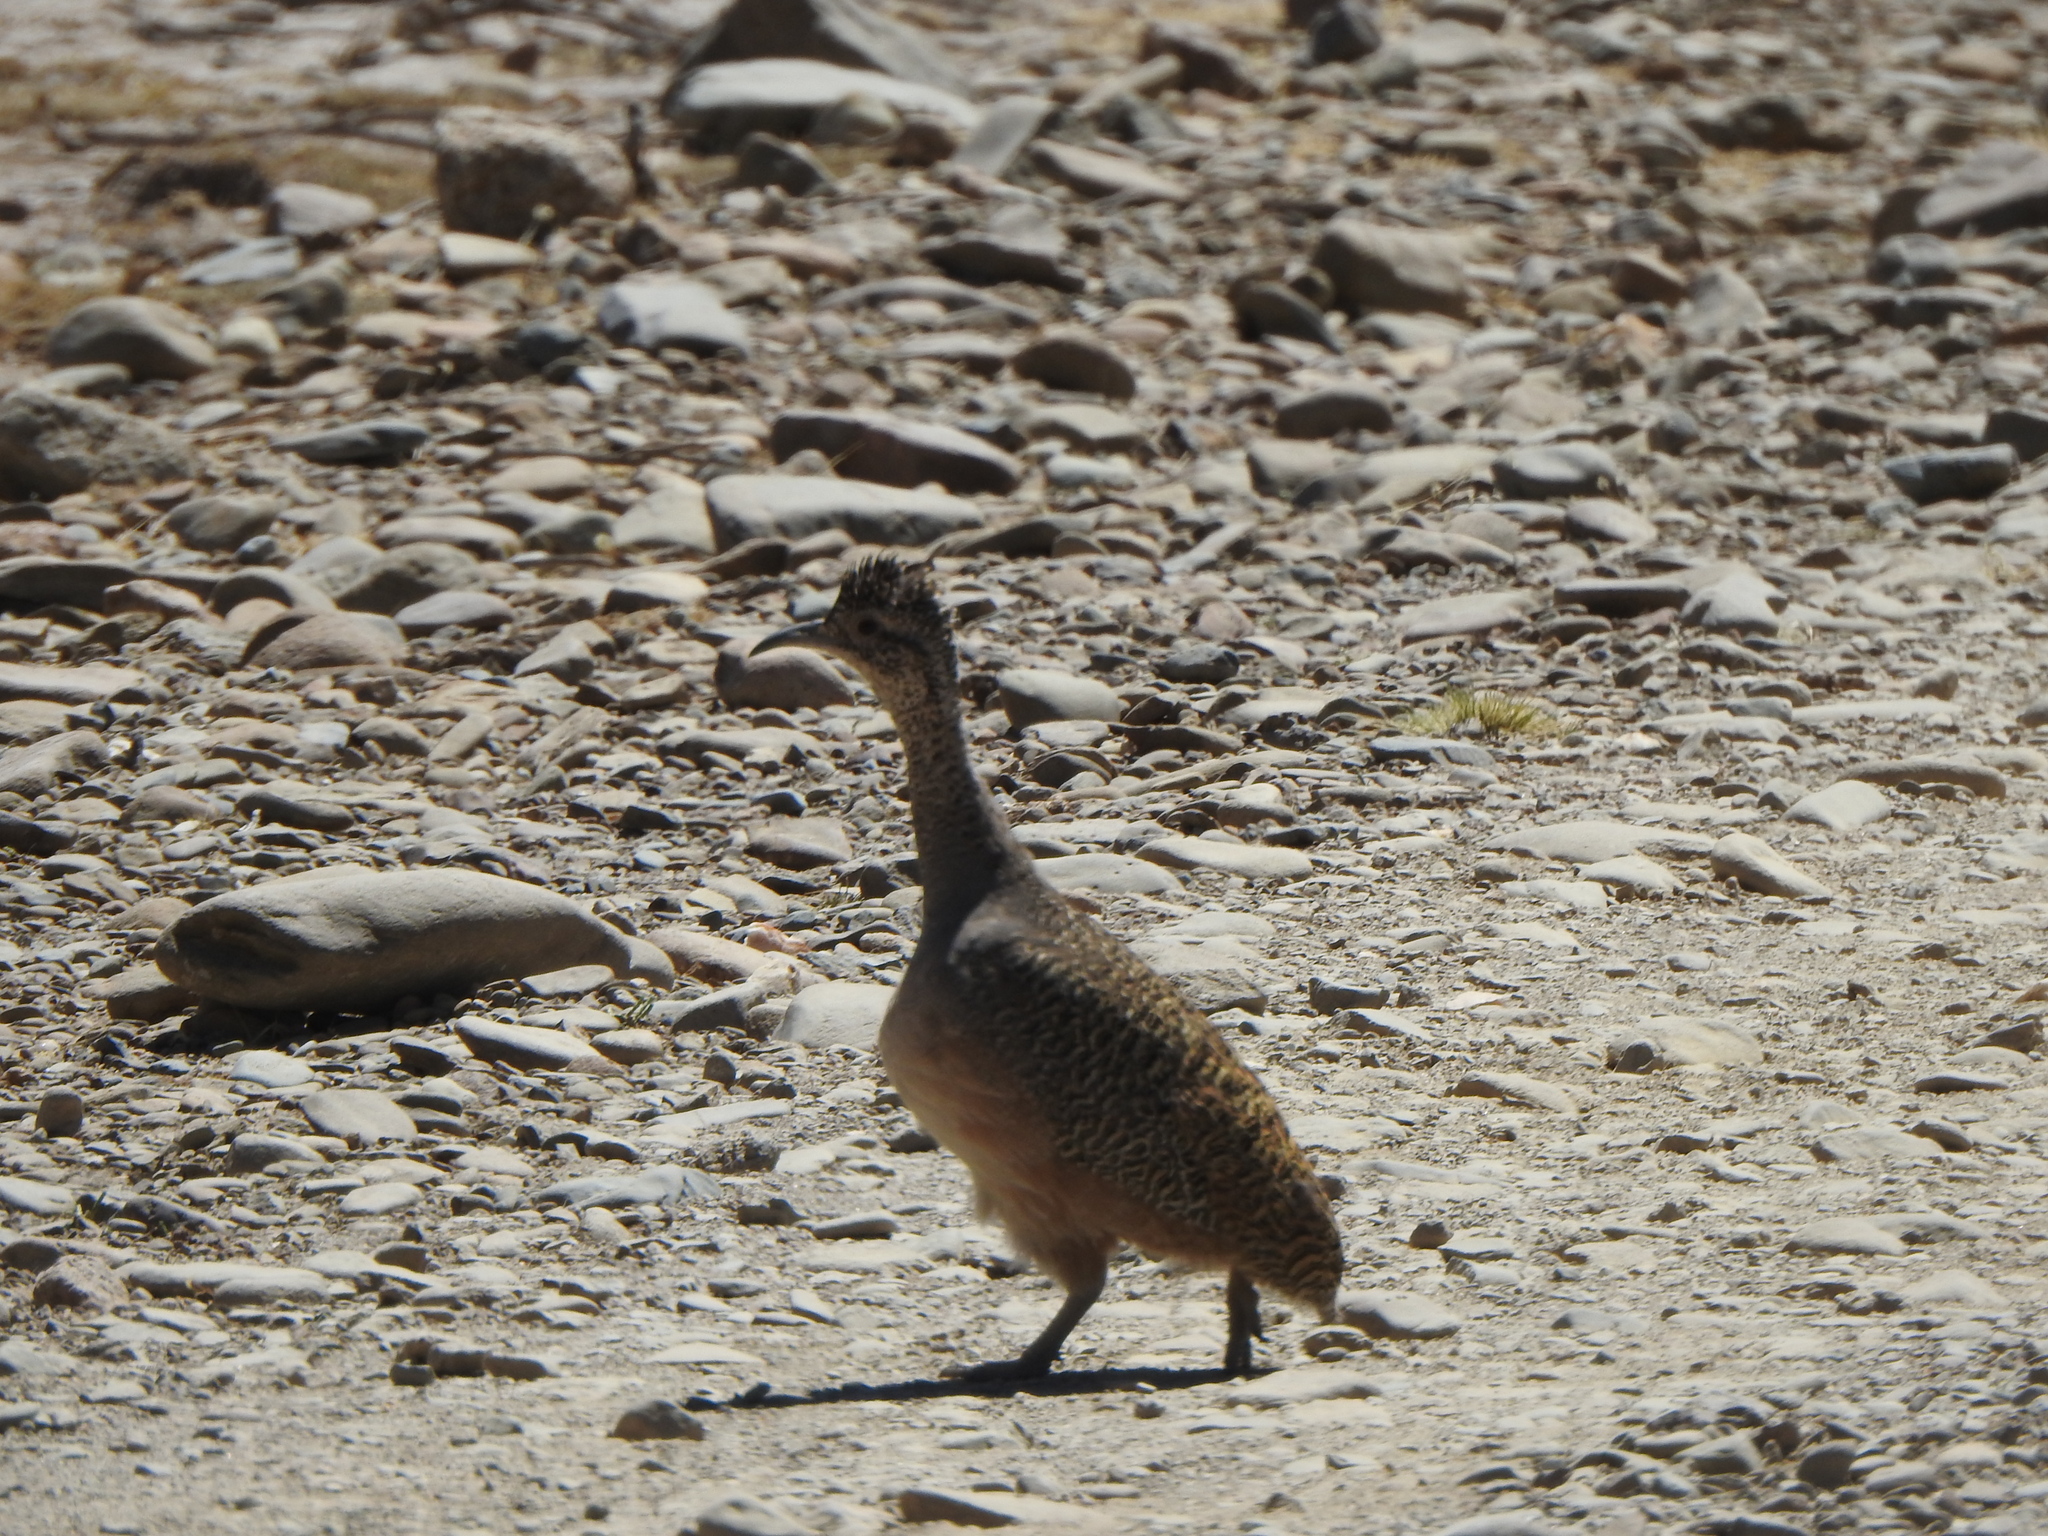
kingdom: Animalia
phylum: Chordata
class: Aves
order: Tinamiformes
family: Tinamidae
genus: Nothoprocta
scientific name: Nothoprocta ornata
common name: Ornate tinamou
